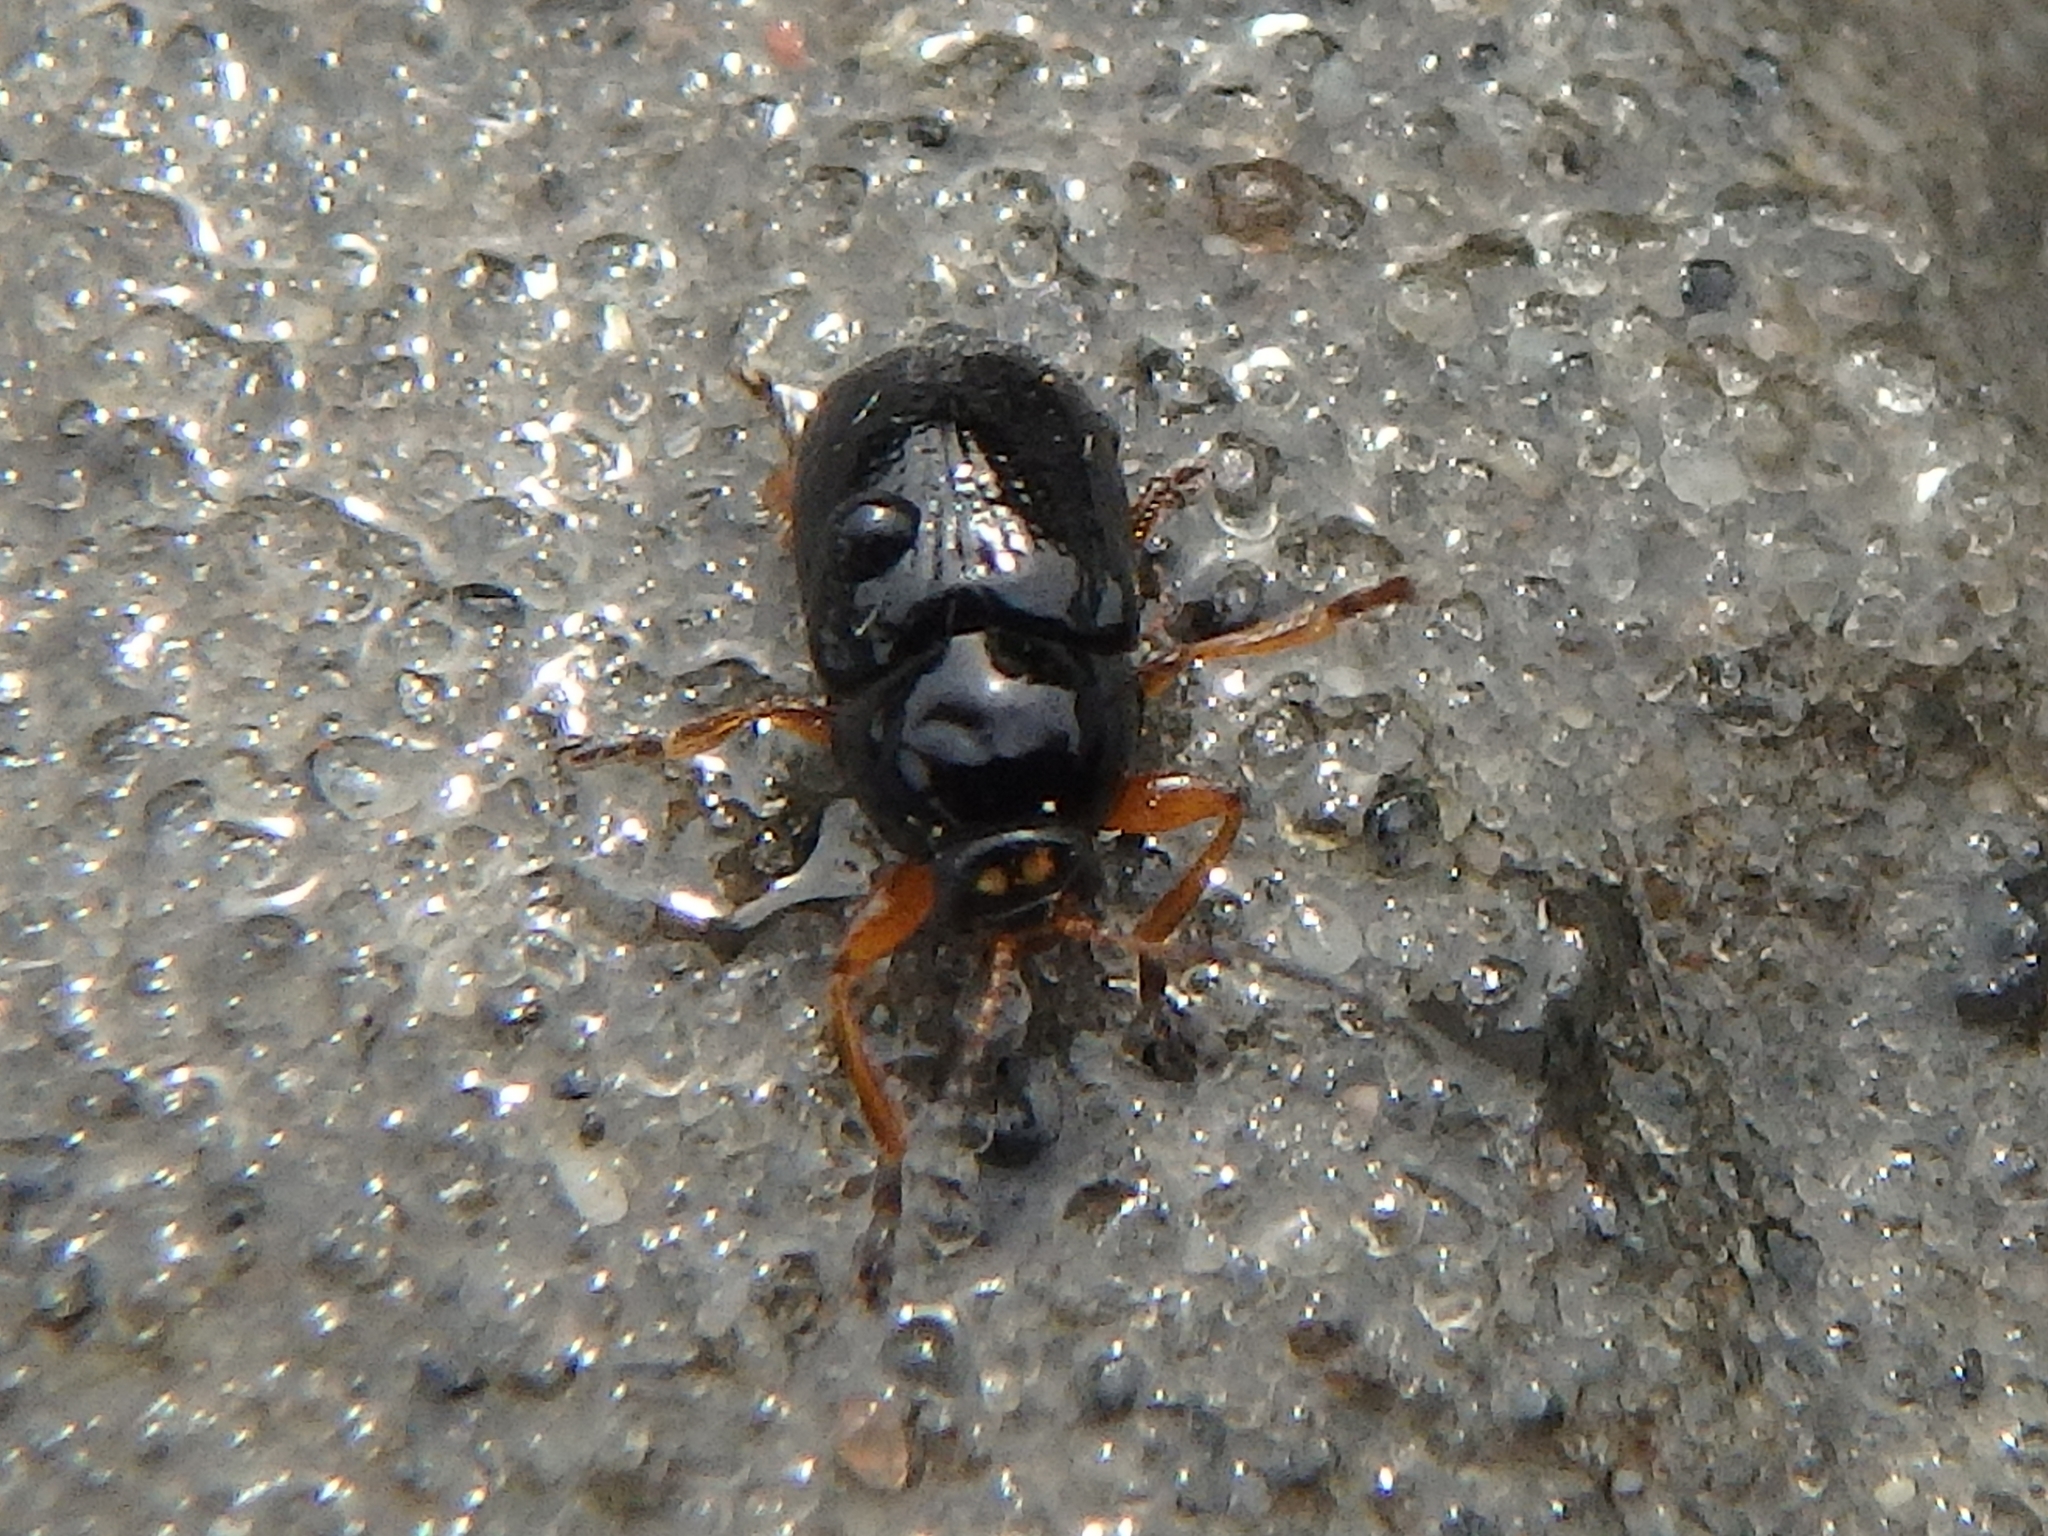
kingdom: Animalia
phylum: Arthropoda
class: Insecta
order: Coleoptera
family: Chrysomelidae
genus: Cryptocephalus
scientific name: Cryptocephalus ocellatus
